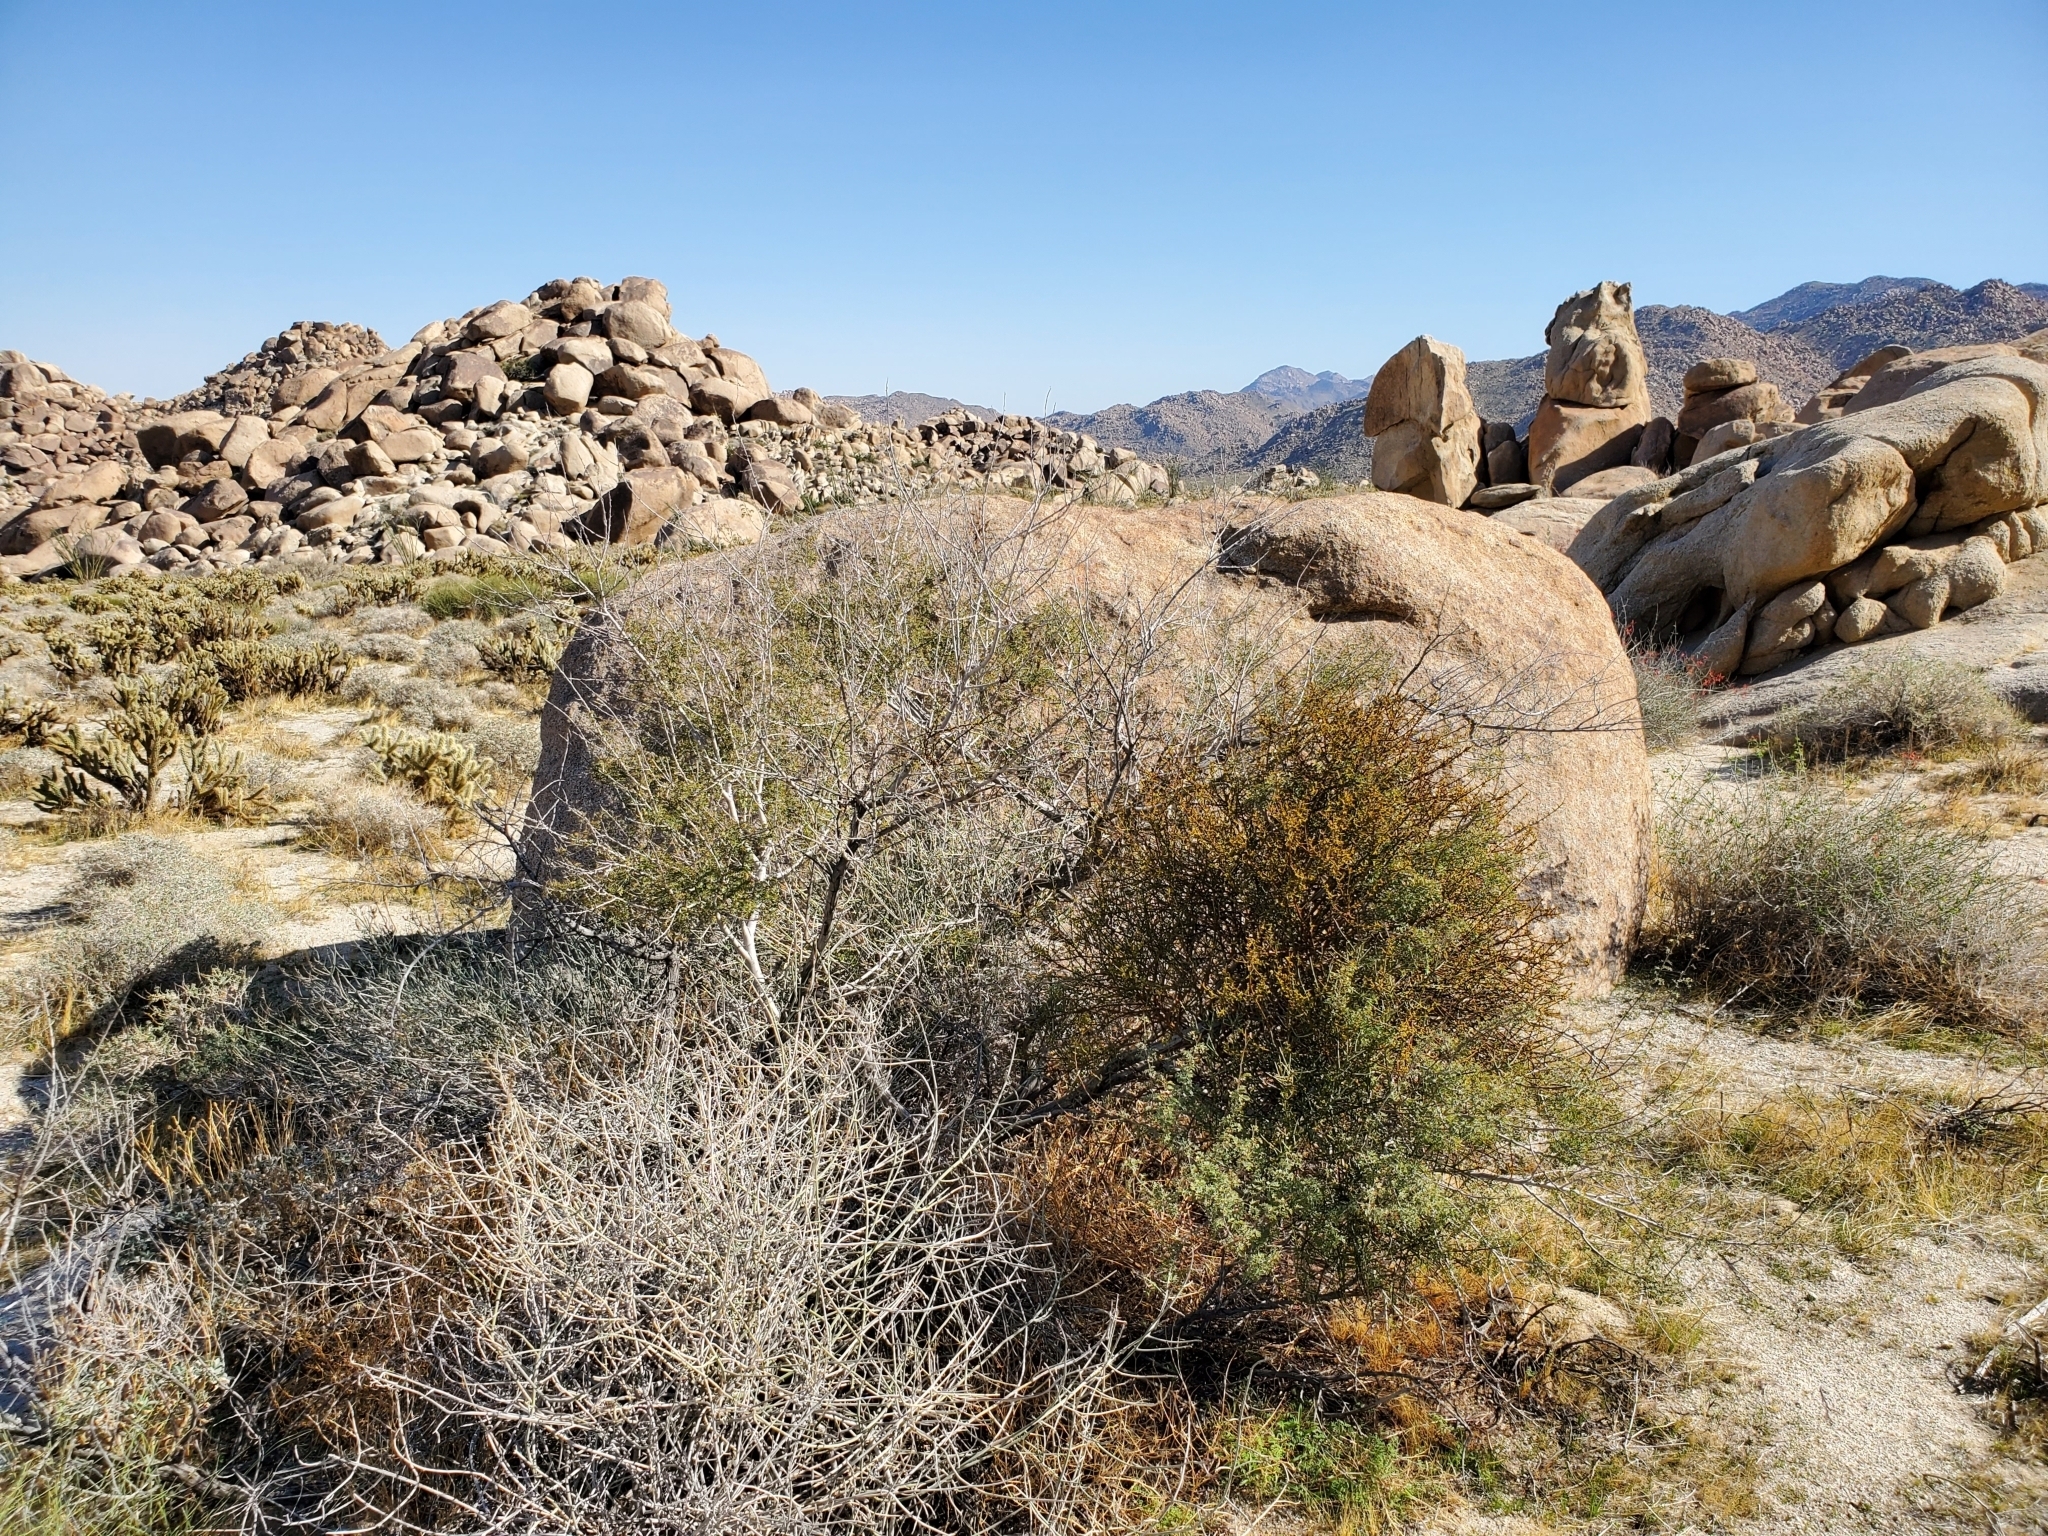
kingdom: Plantae
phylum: Tracheophyta
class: Magnoliopsida
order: Fabales
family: Fabaceae
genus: Senegalia
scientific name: Senegalia greggii
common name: Texas-mimosa
